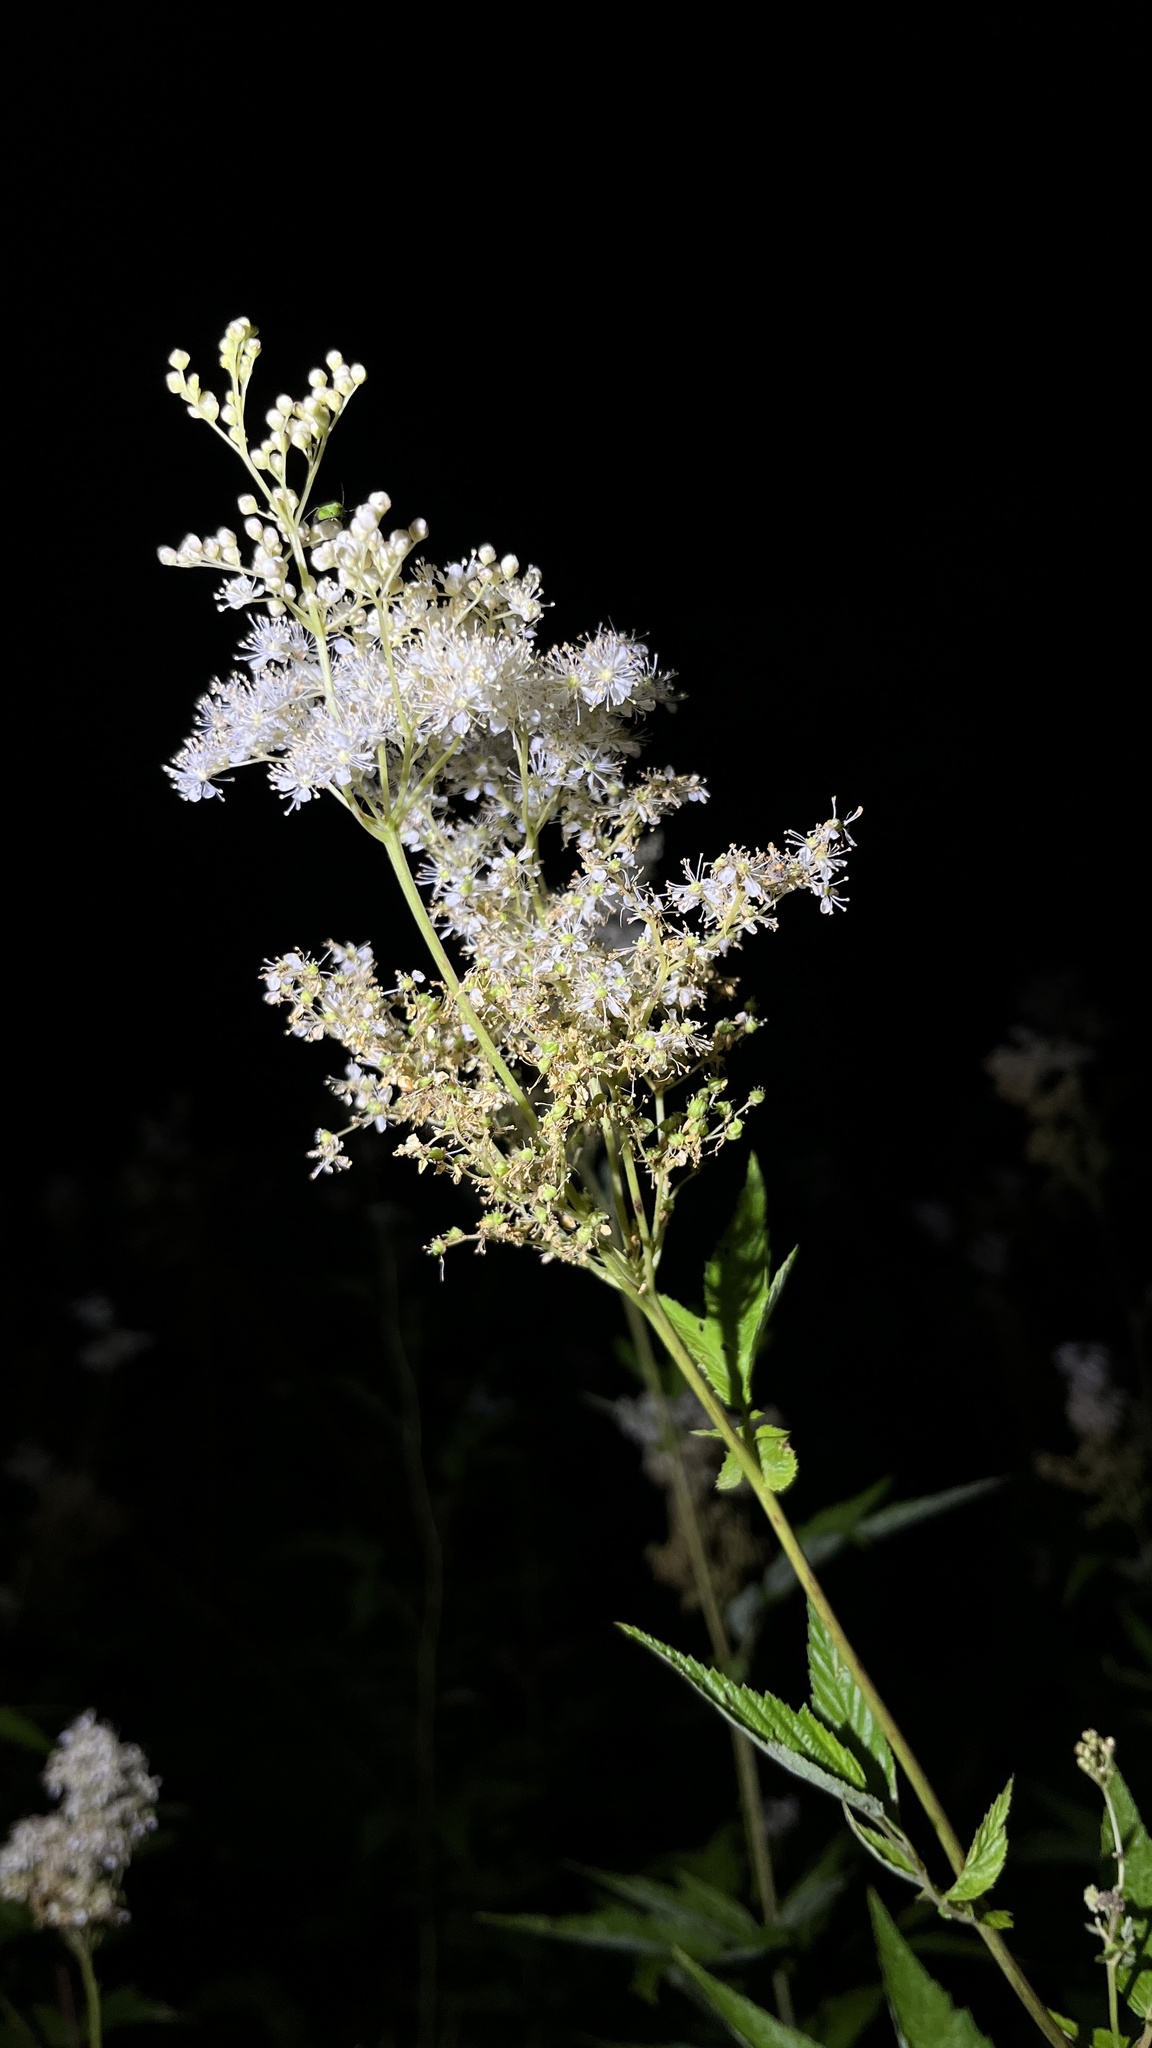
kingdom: Plantae
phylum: Tracheophyta
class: Magnoliopsida
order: Rosales
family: Rosaceae
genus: Filipendula
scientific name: Filipendula ulmaria
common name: Meadowsweet
